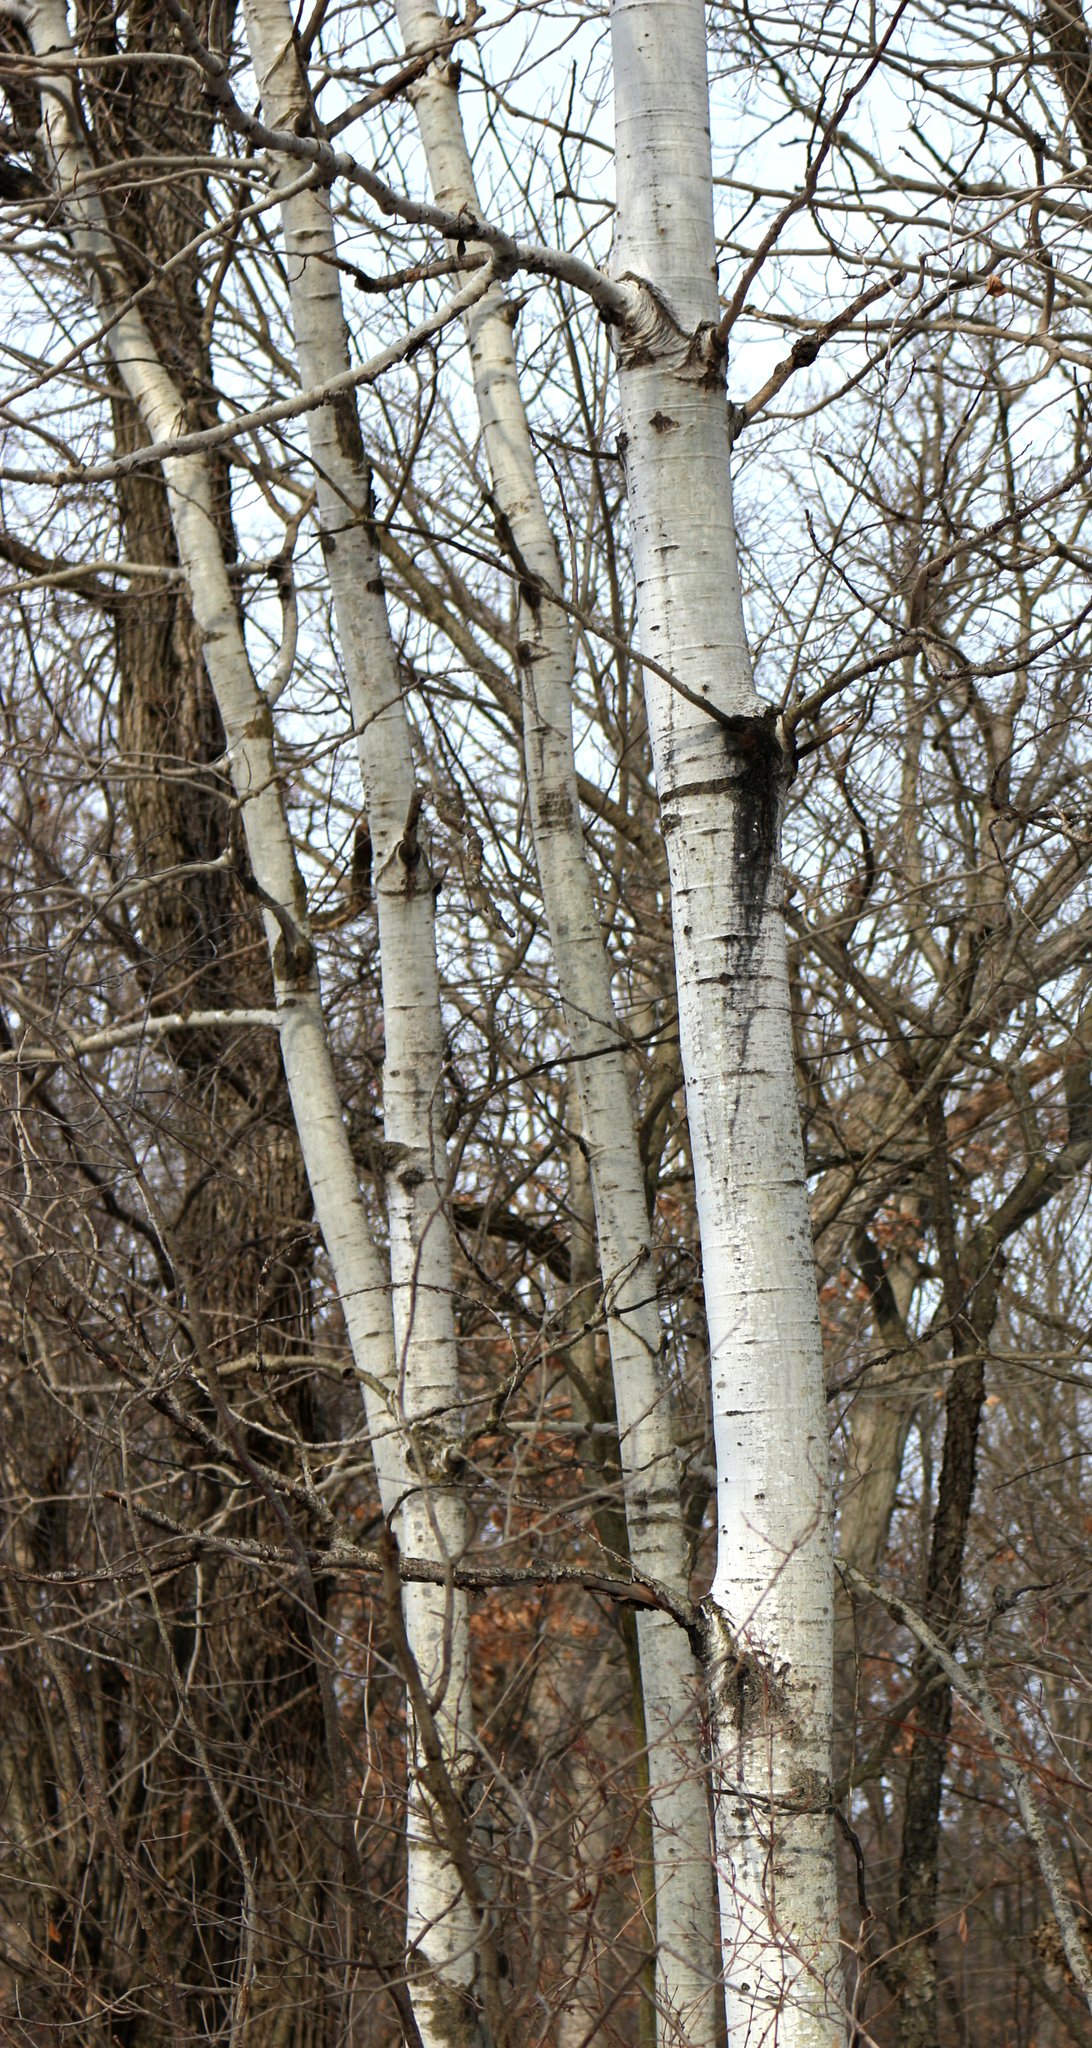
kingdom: Plantae
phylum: Tracheophyta
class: Magnoliopsida
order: Malpighiales
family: Salicaceae
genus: Populus
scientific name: Populus tremuloides
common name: Quaking aspen
